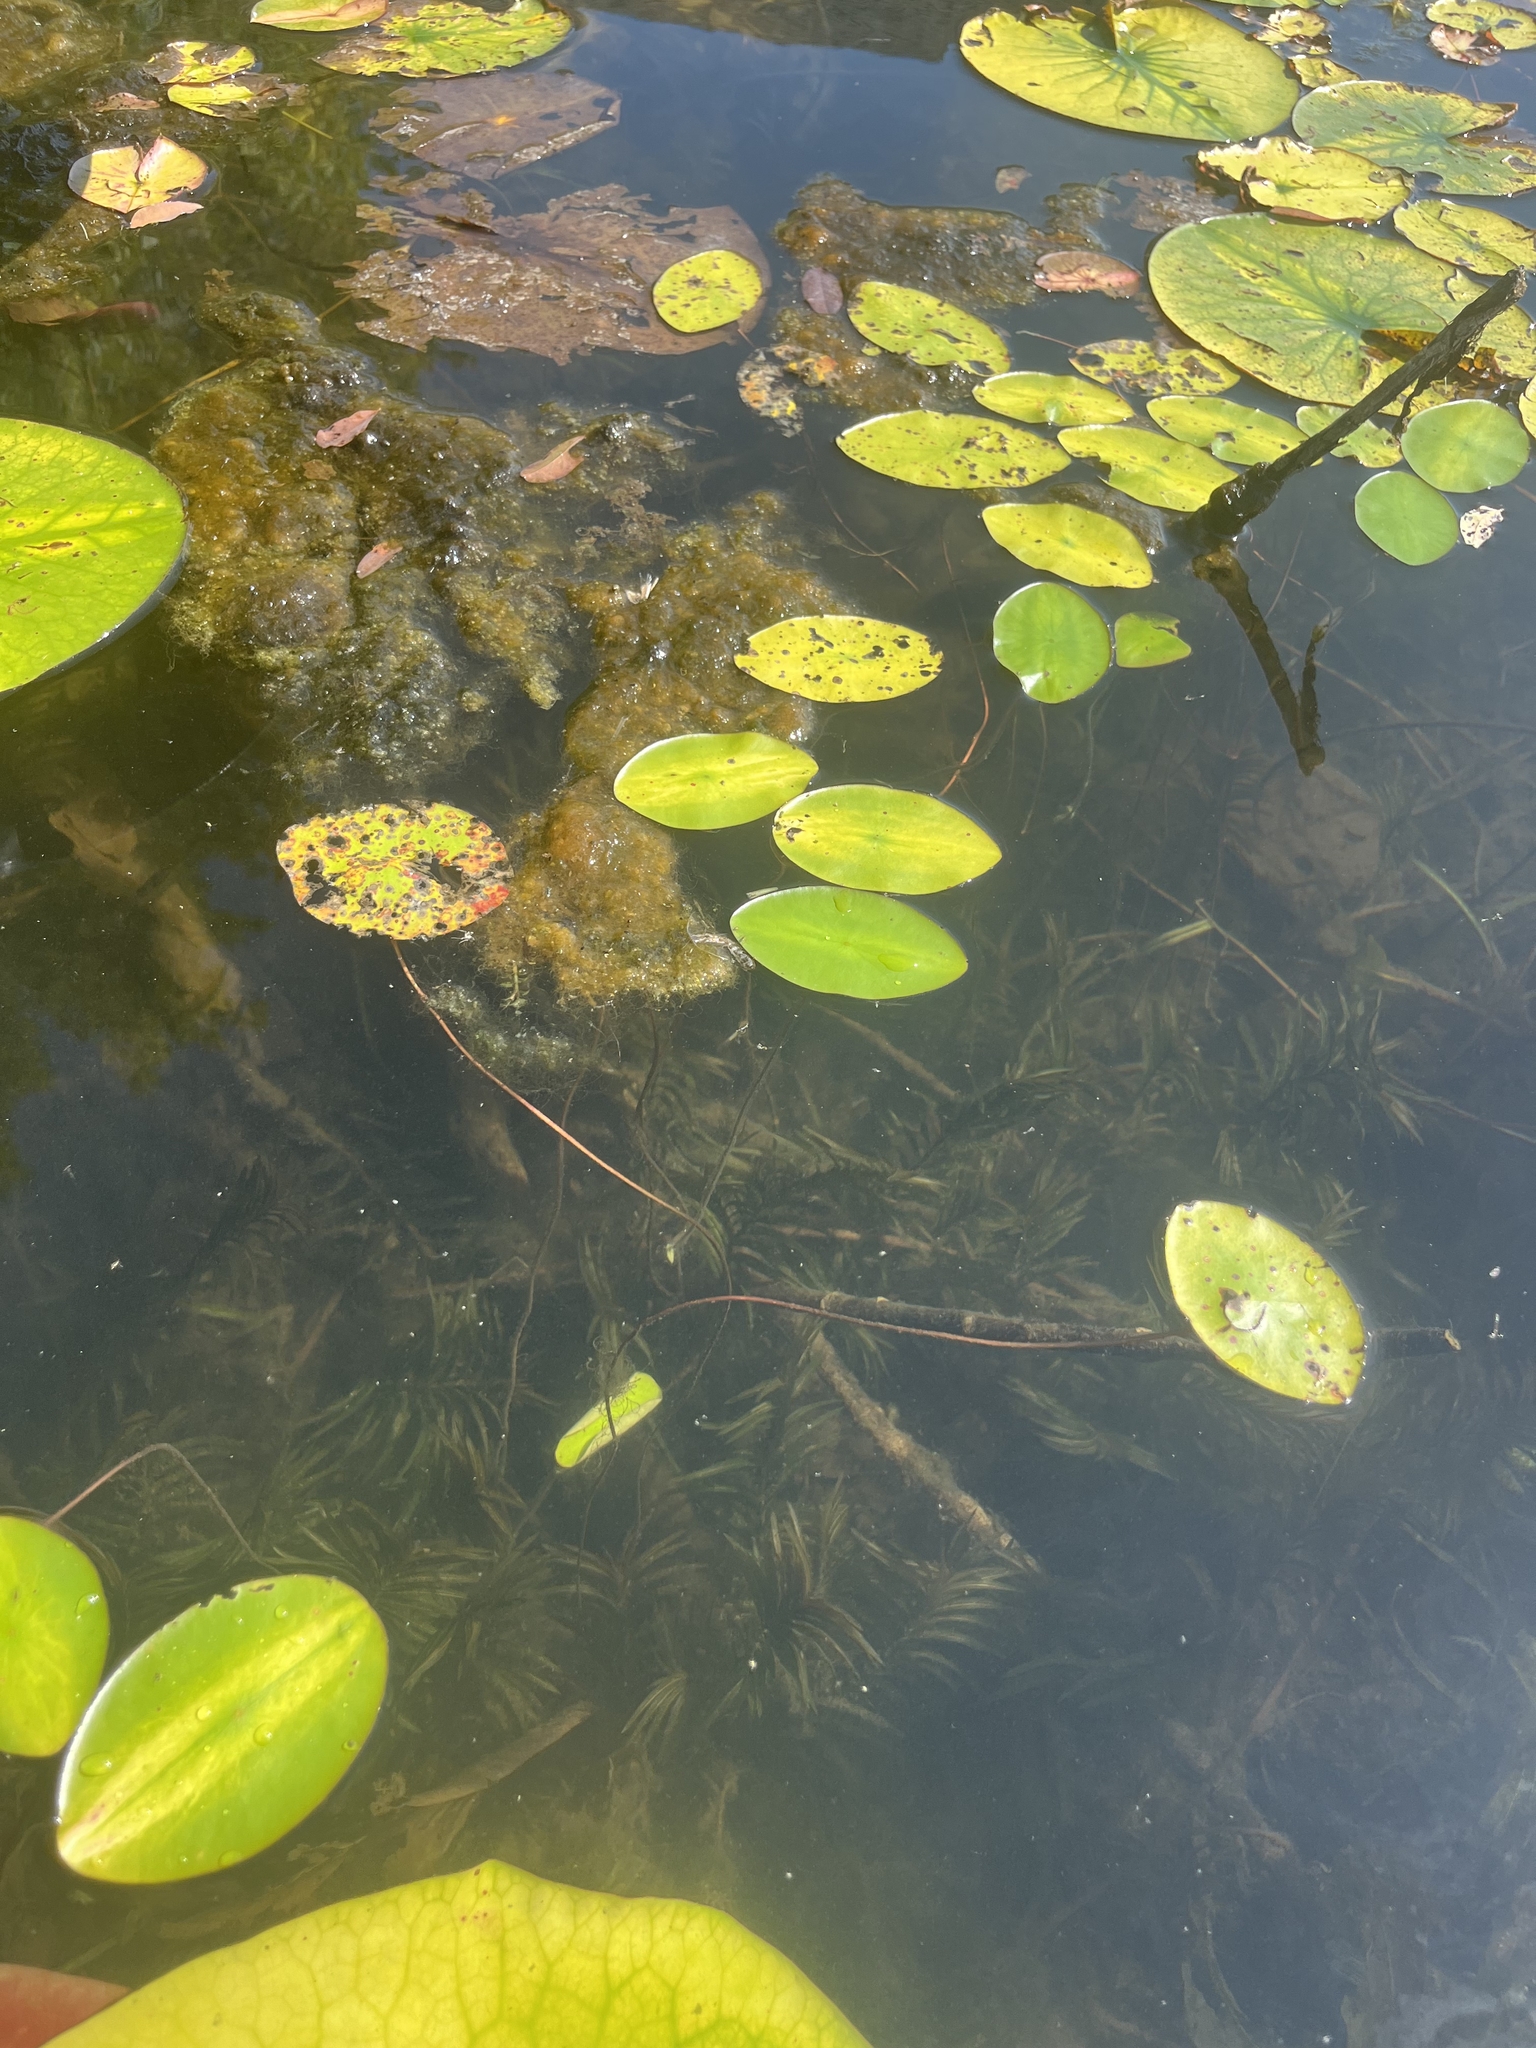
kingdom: Plantae
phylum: Tracheophyta
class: Magnoliopsida
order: Nymphaeales
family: Cabombaceae
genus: Brasenia
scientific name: Brasenia schreberi
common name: Water-shield
